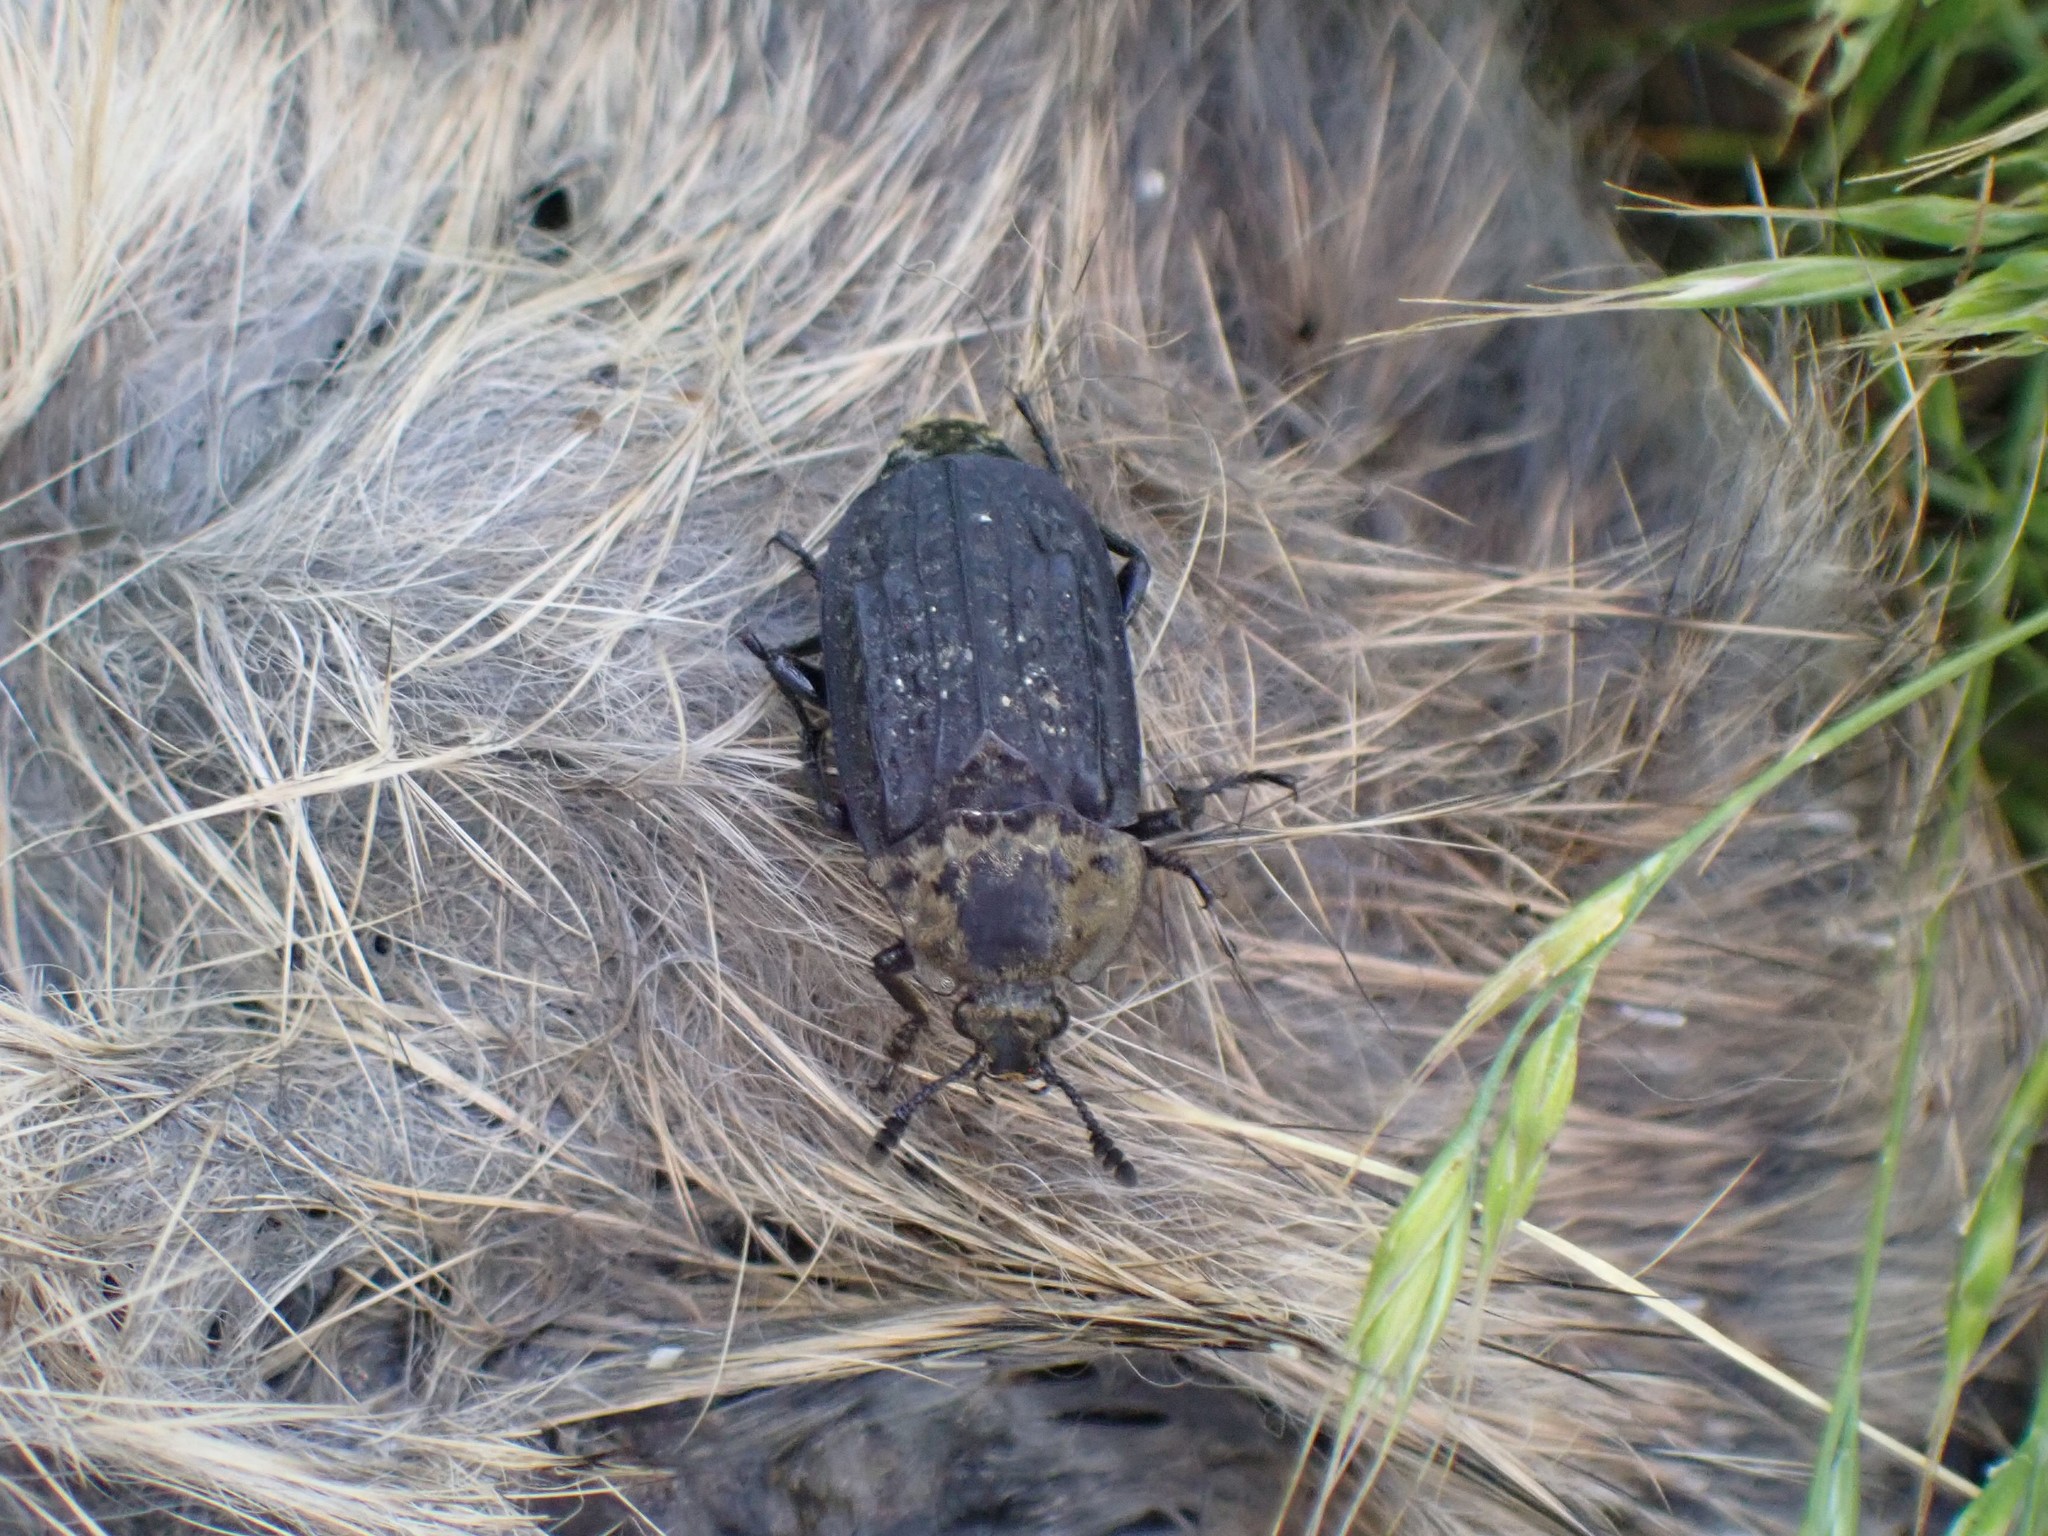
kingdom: Animalia
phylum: Arthropoda
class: Insecta
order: Coleoptera
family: Staphylinidae
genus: Thanatophilus
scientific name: Thanatophilus lapponicus
